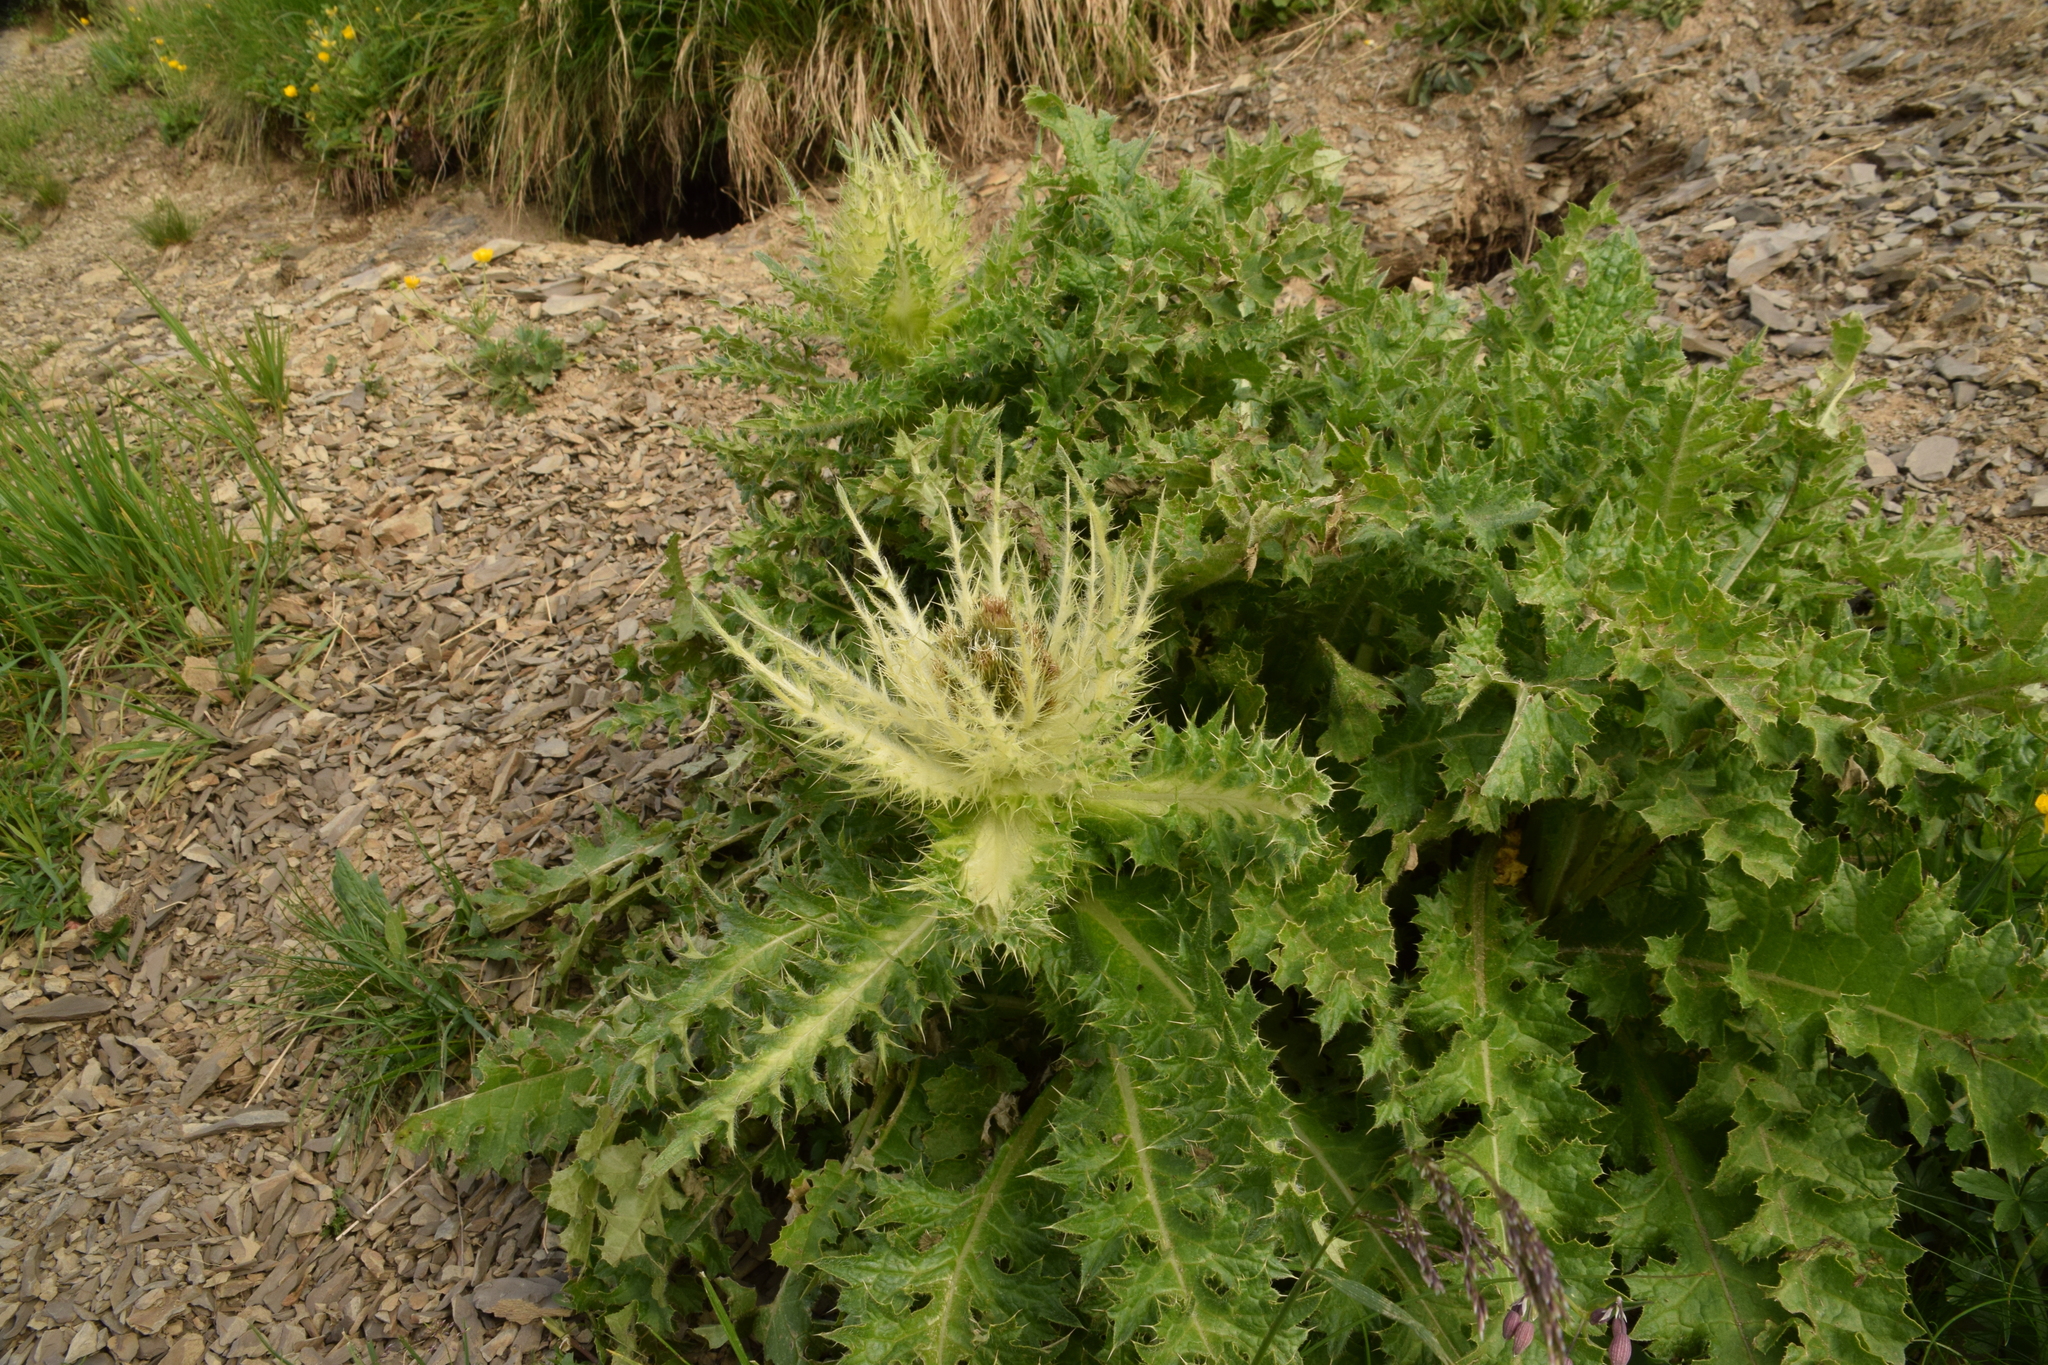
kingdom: Plantae
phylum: Tracheophyta
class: Magnoliopsida
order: Asterales
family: Asteraceae
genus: Cirsium
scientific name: Cirsium spinosissimum
